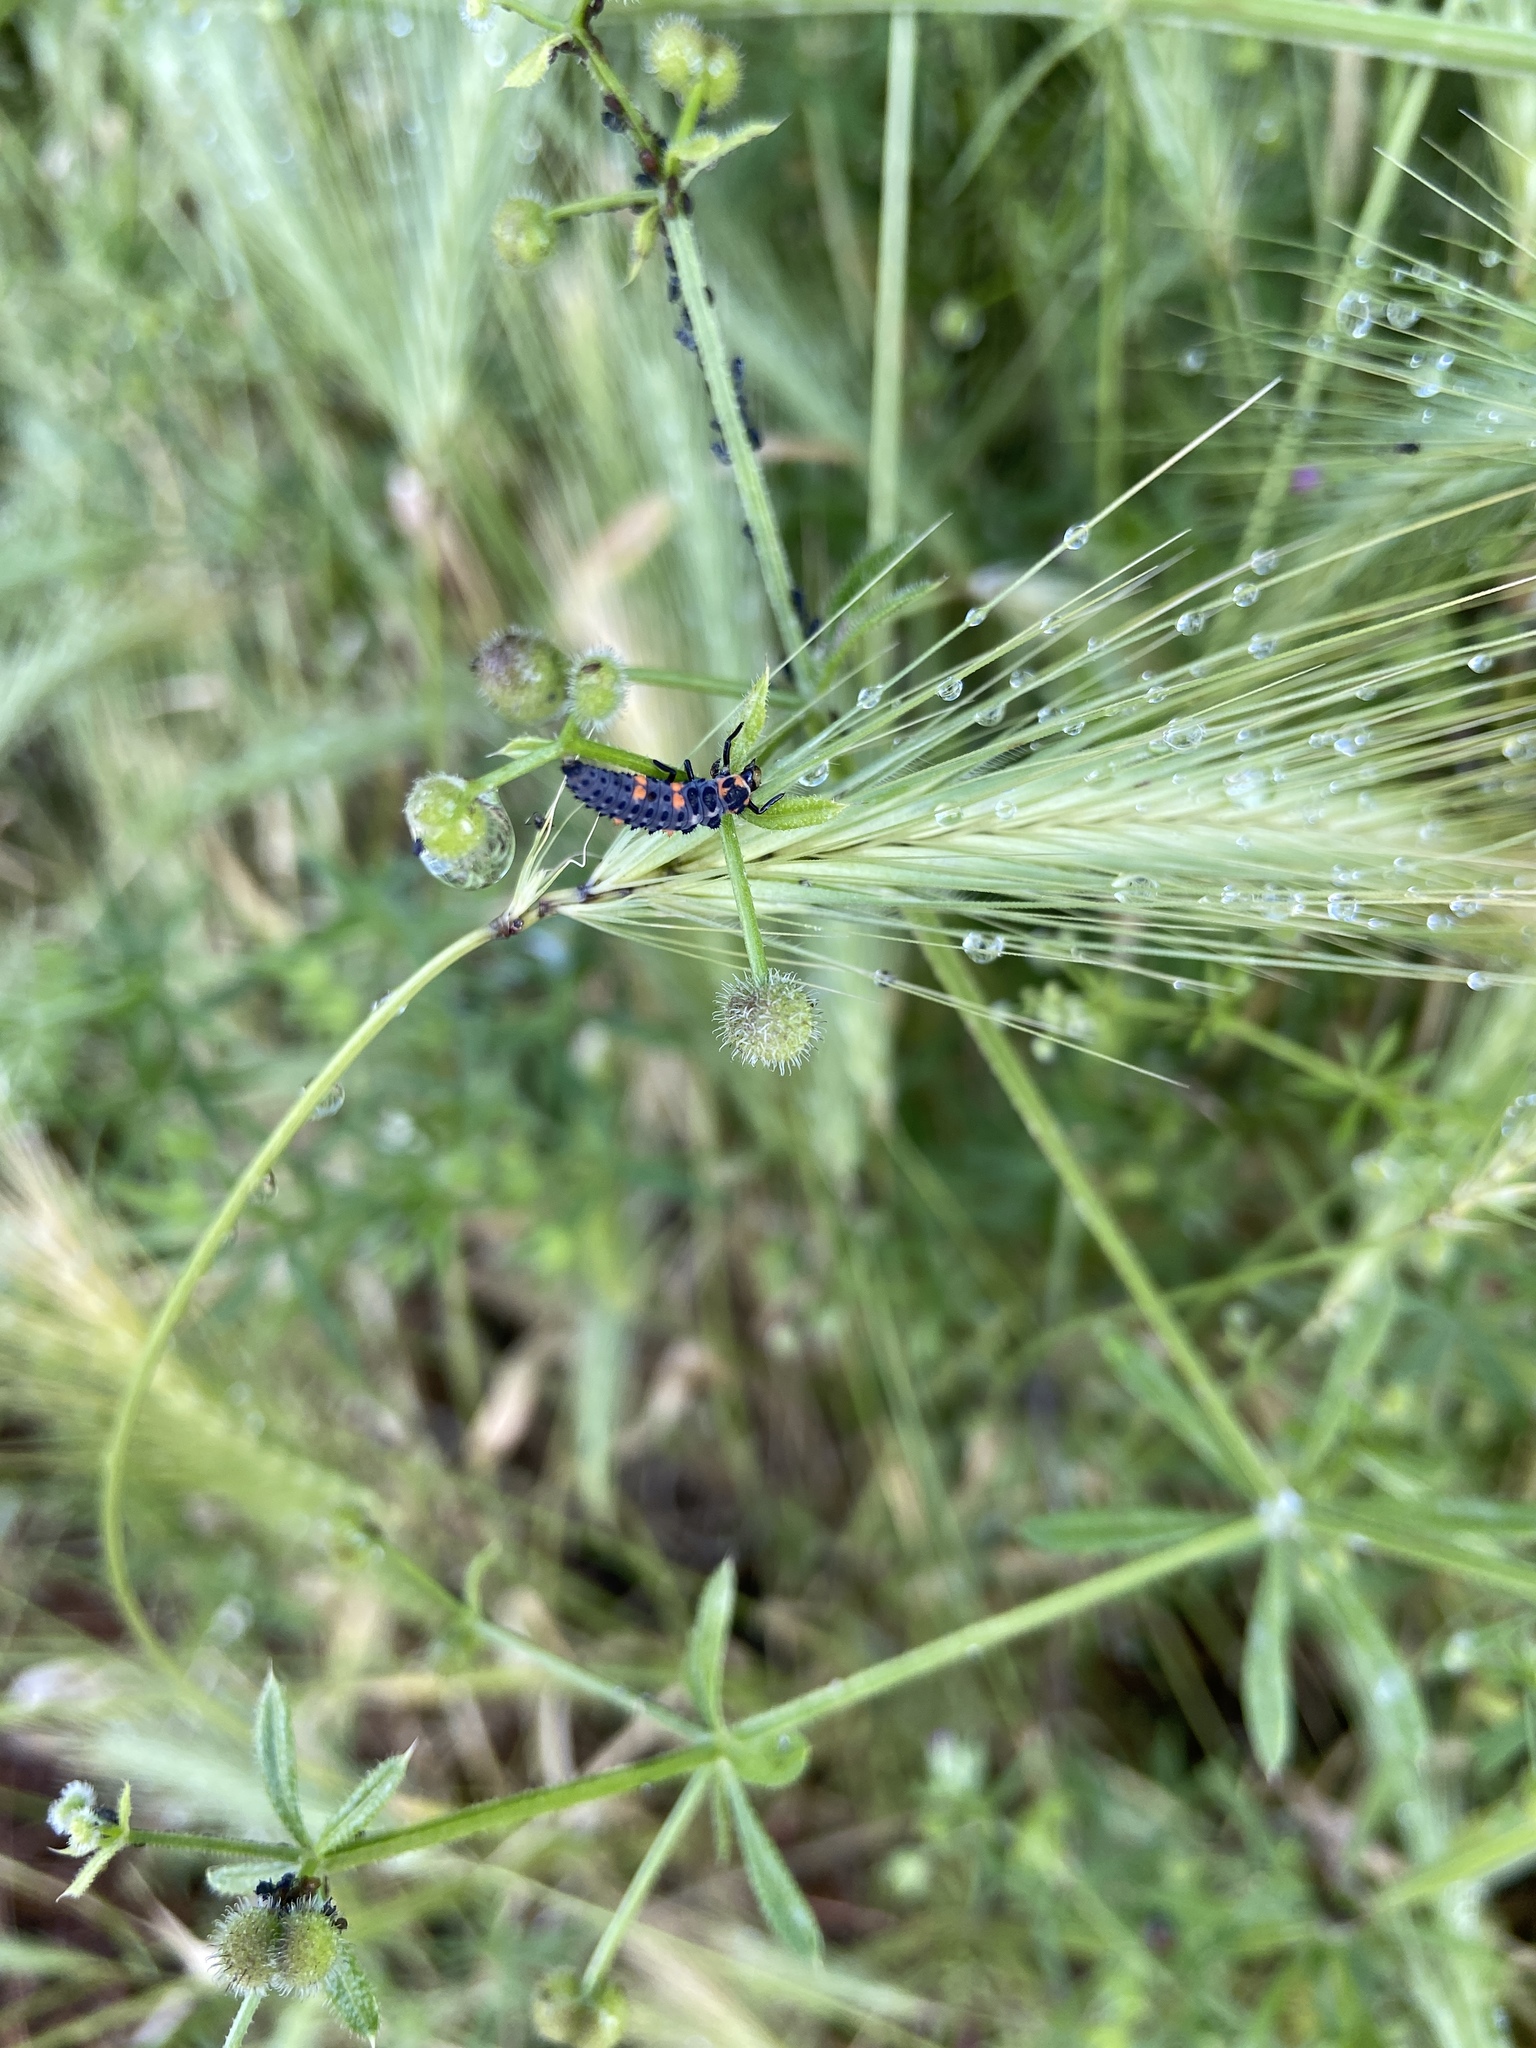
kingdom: Animalia
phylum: Arthropoda
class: Insecta
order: Coleoptera
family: Coccinellidae
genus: Coccinella
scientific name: Coccinella septempunctata
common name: Sevenspotted lady beetle
